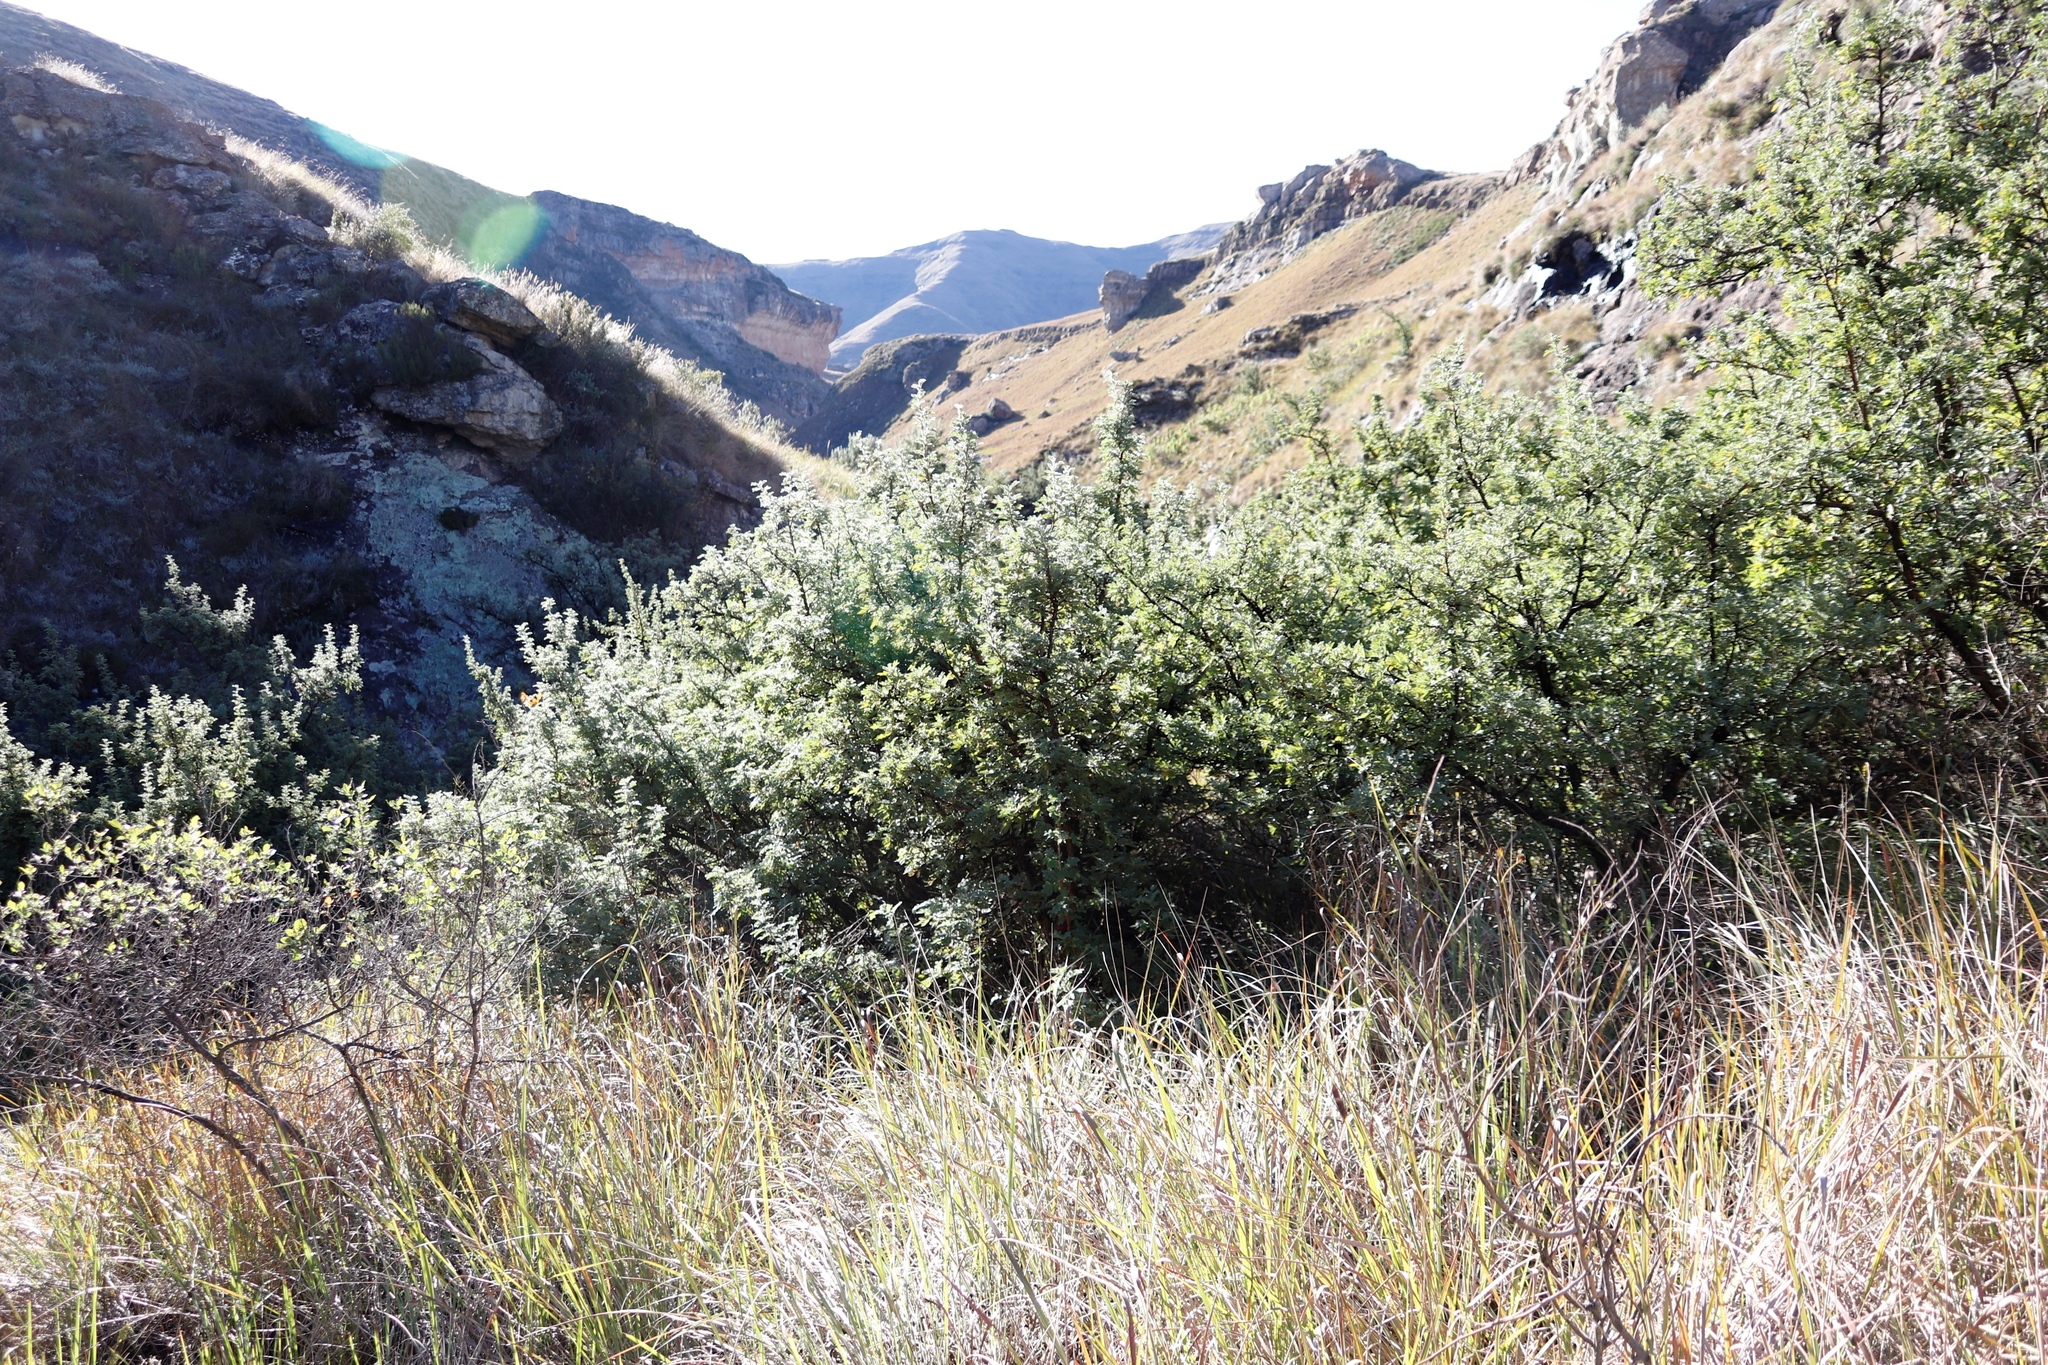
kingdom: Plantae
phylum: Tracheophyta
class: Magnoliopsida
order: Rosales
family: Rosaceae
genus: Leucosidea
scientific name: Leucosidea sericea
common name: Oldwood
